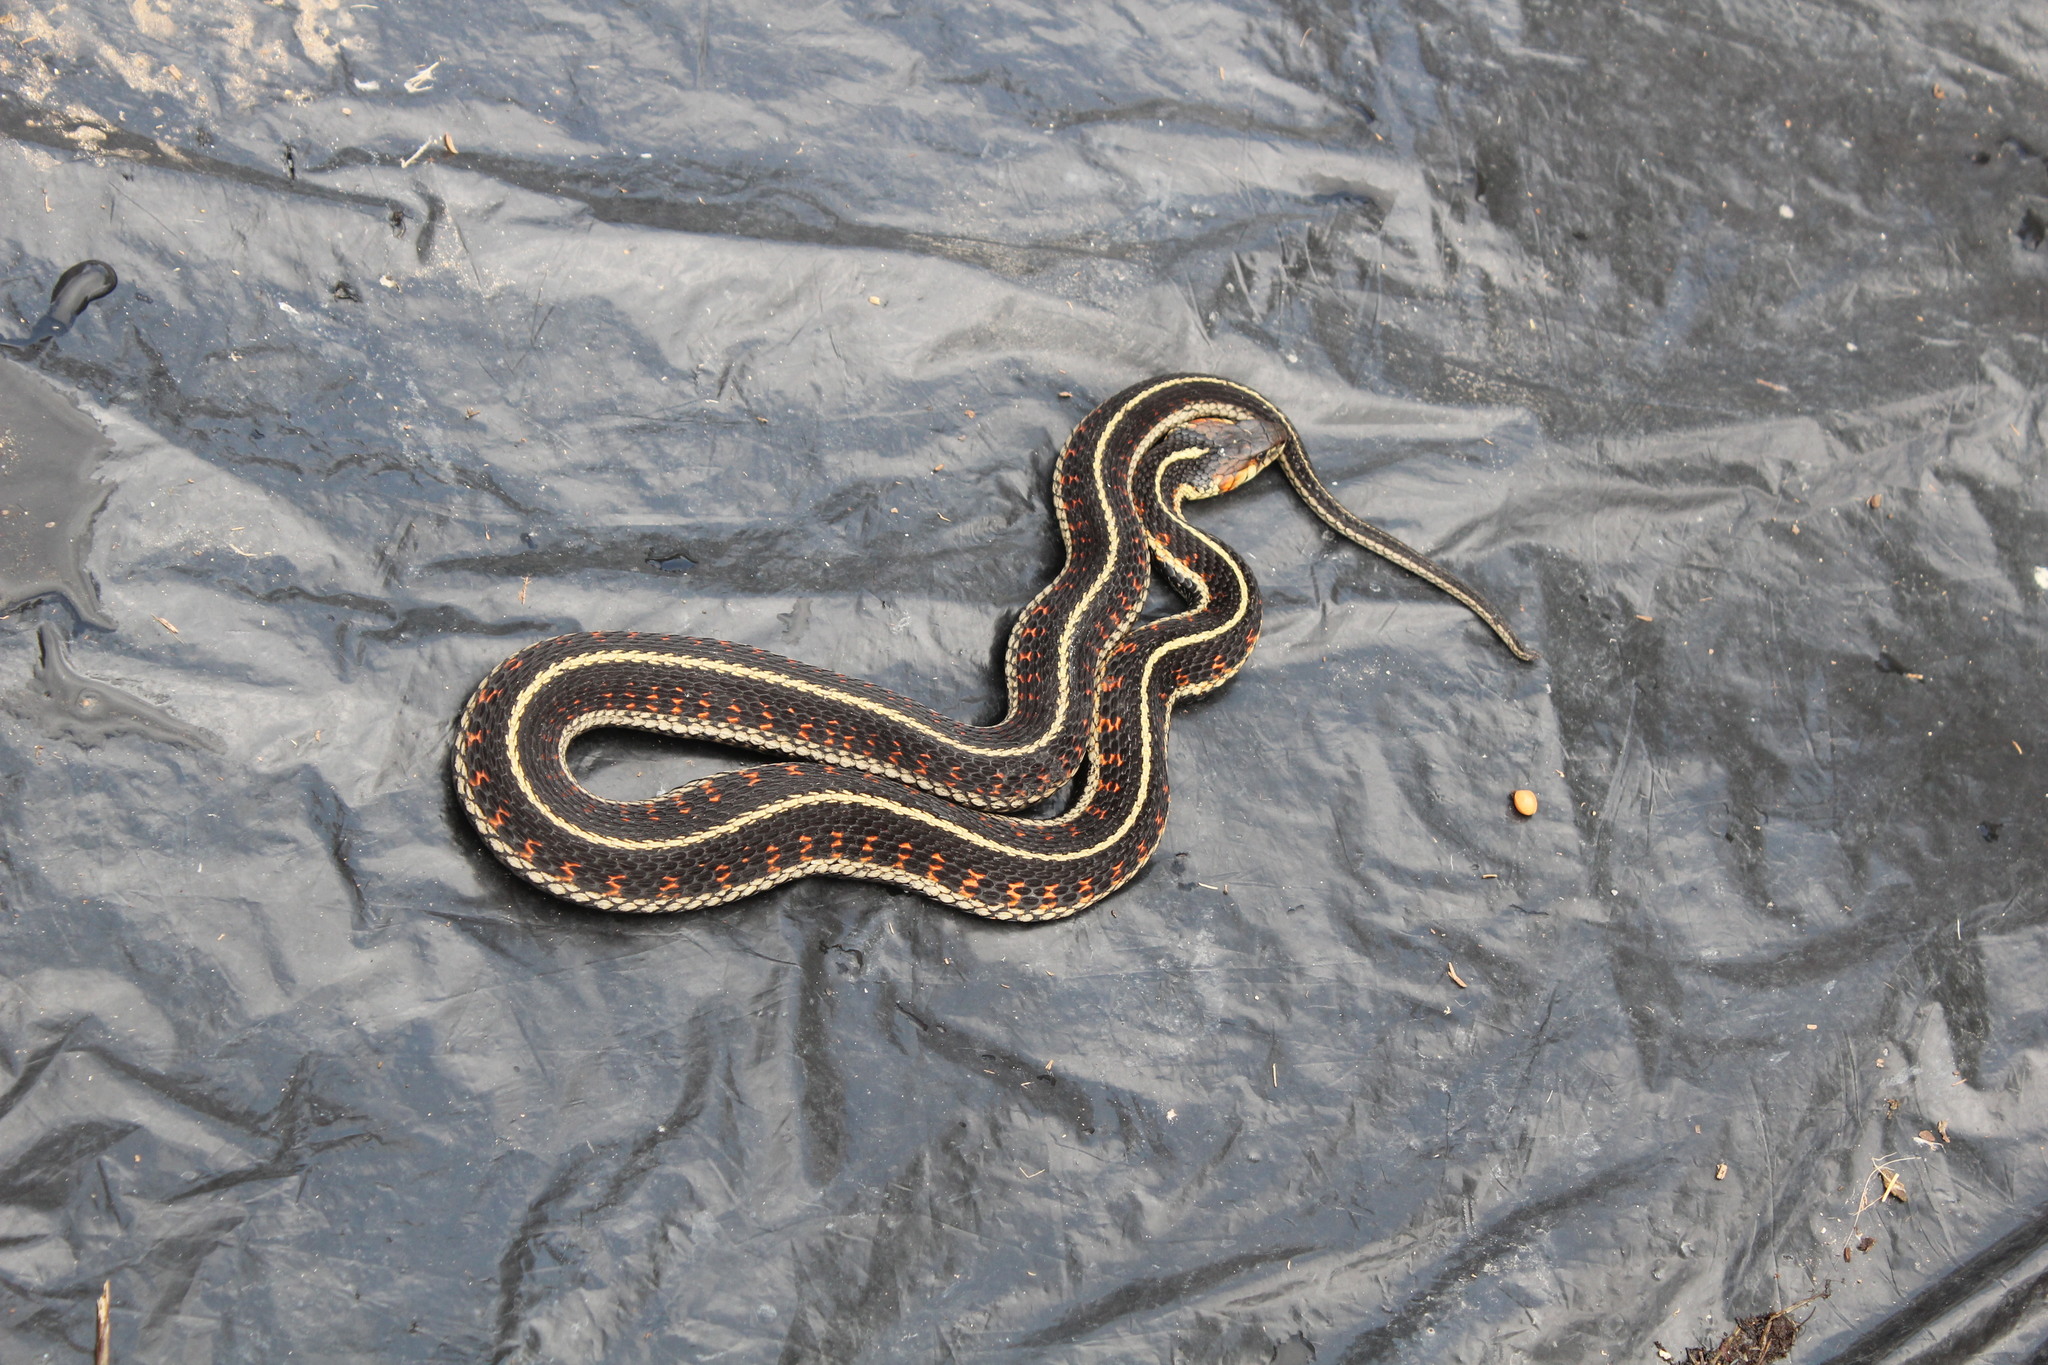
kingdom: Animalia
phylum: Chordata
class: Squamata
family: Colubridae
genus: Thamnophis
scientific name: Thamnophis sirtalis
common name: Common garter snake
